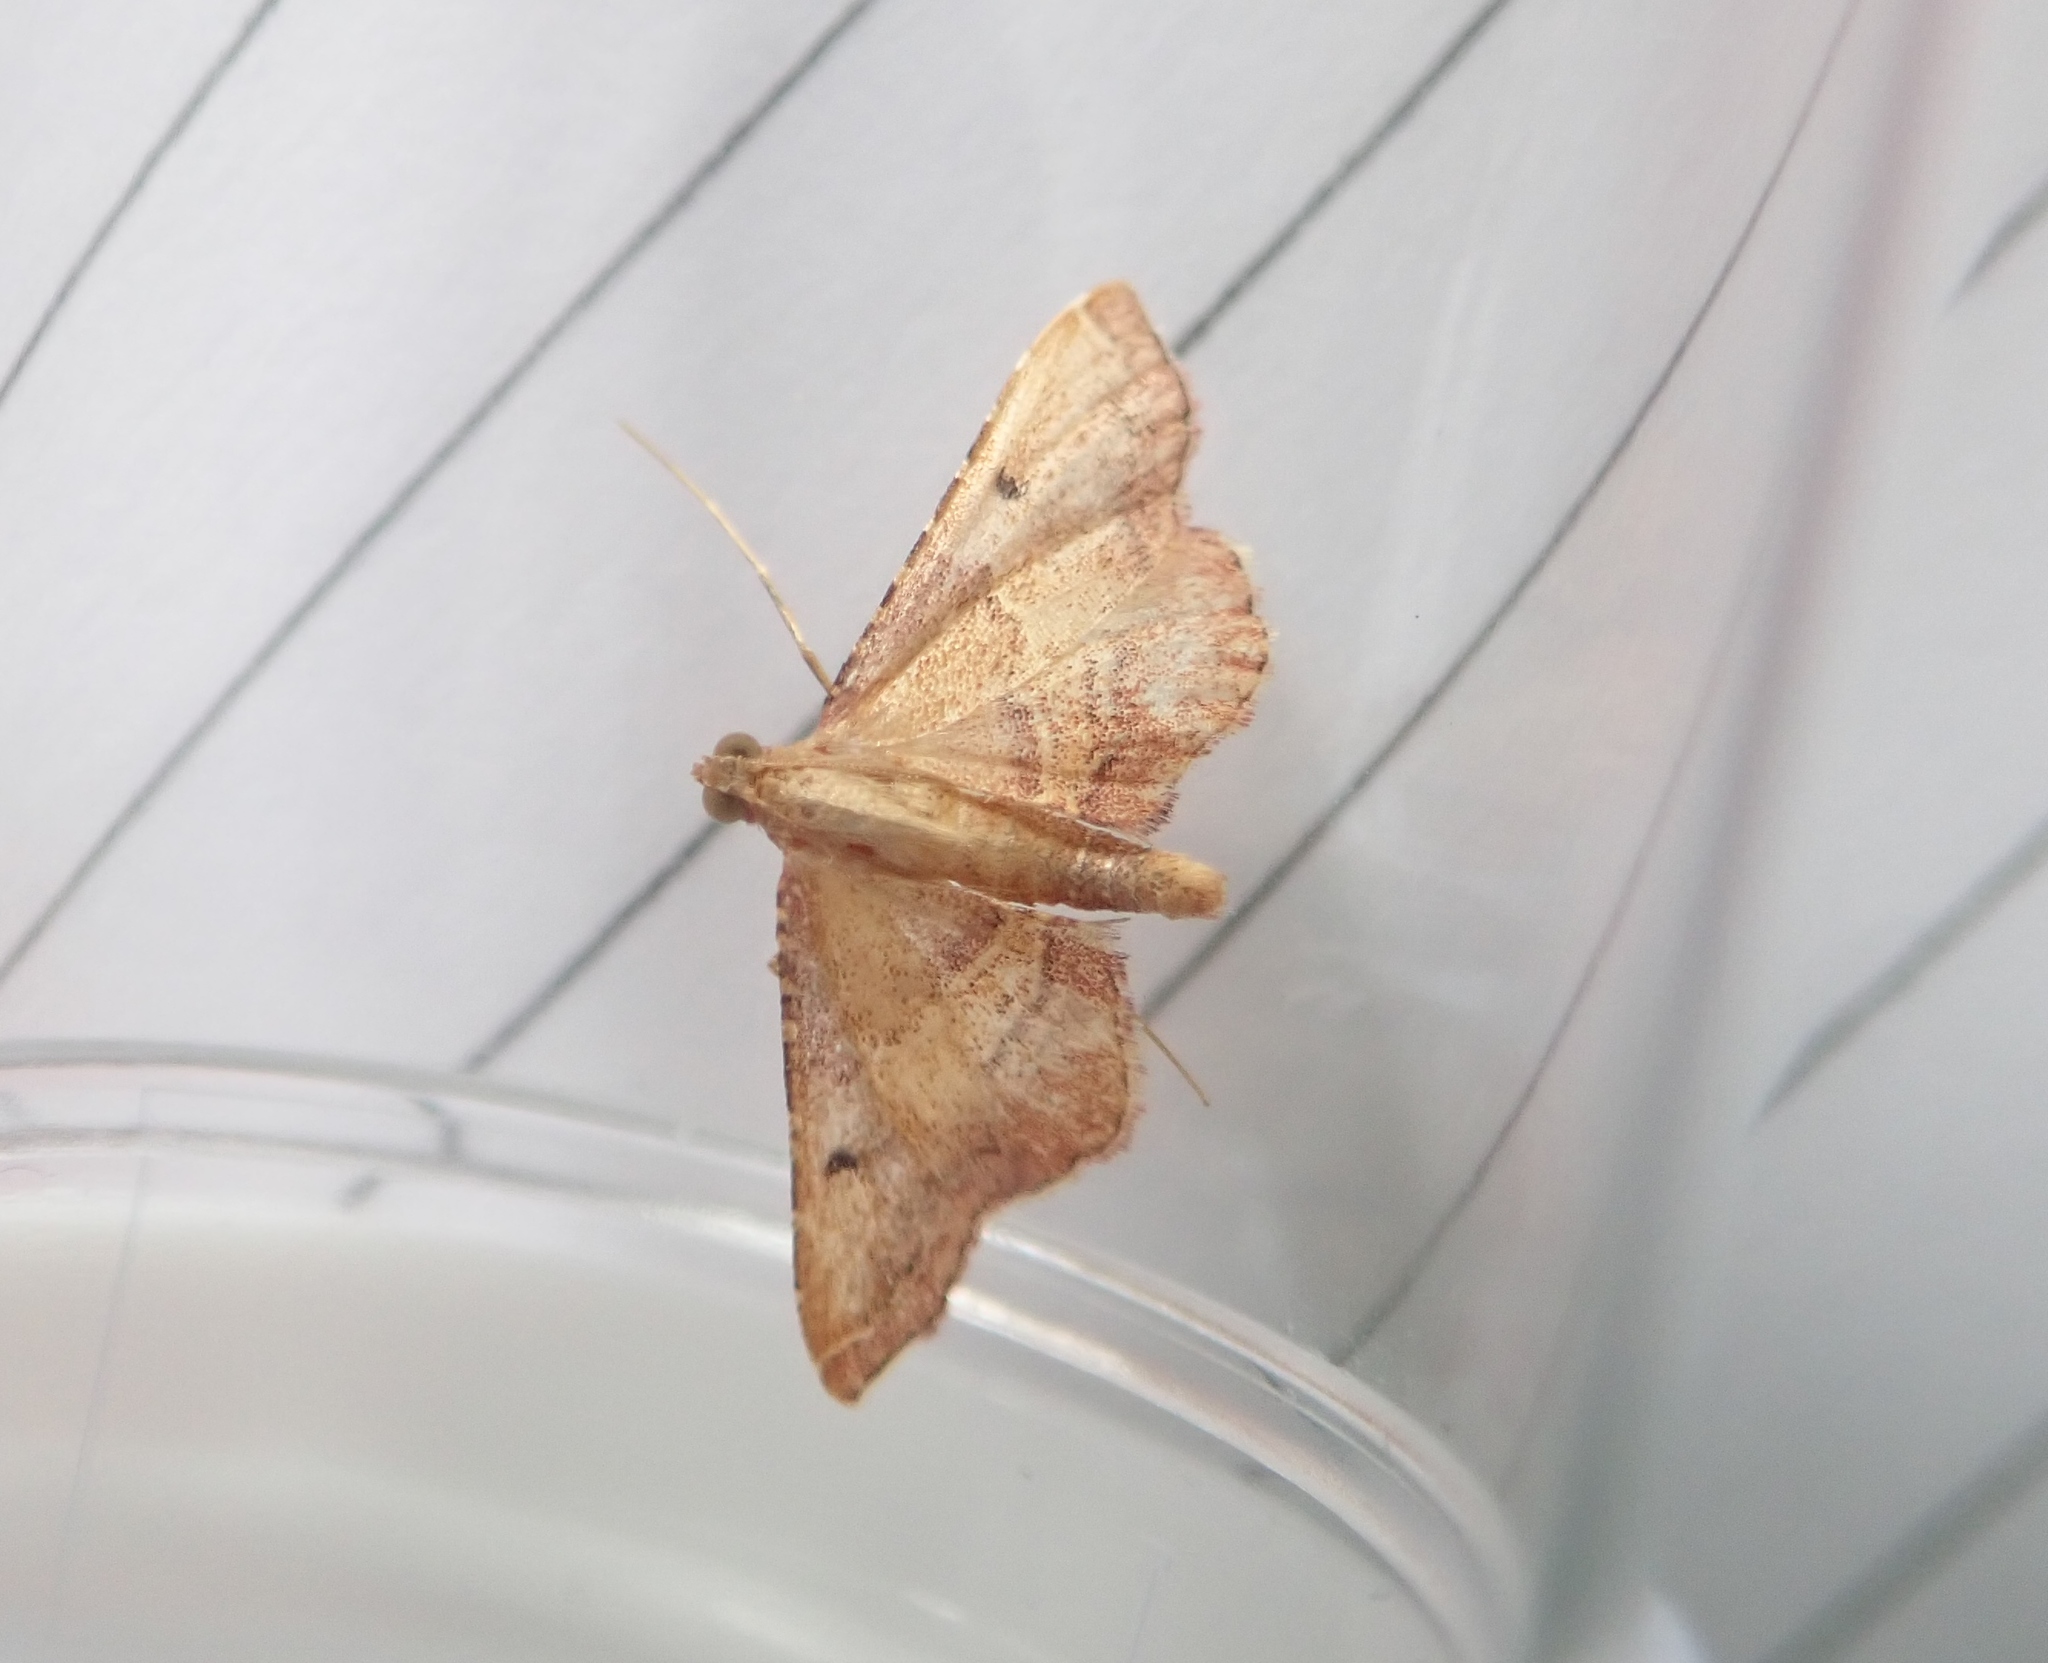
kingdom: Animalia
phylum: Arthropoda
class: Insecta
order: Lepidoptera
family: Pyralidae
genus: Endotricha
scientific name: Endotricha flammealis
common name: Rosy tabby
